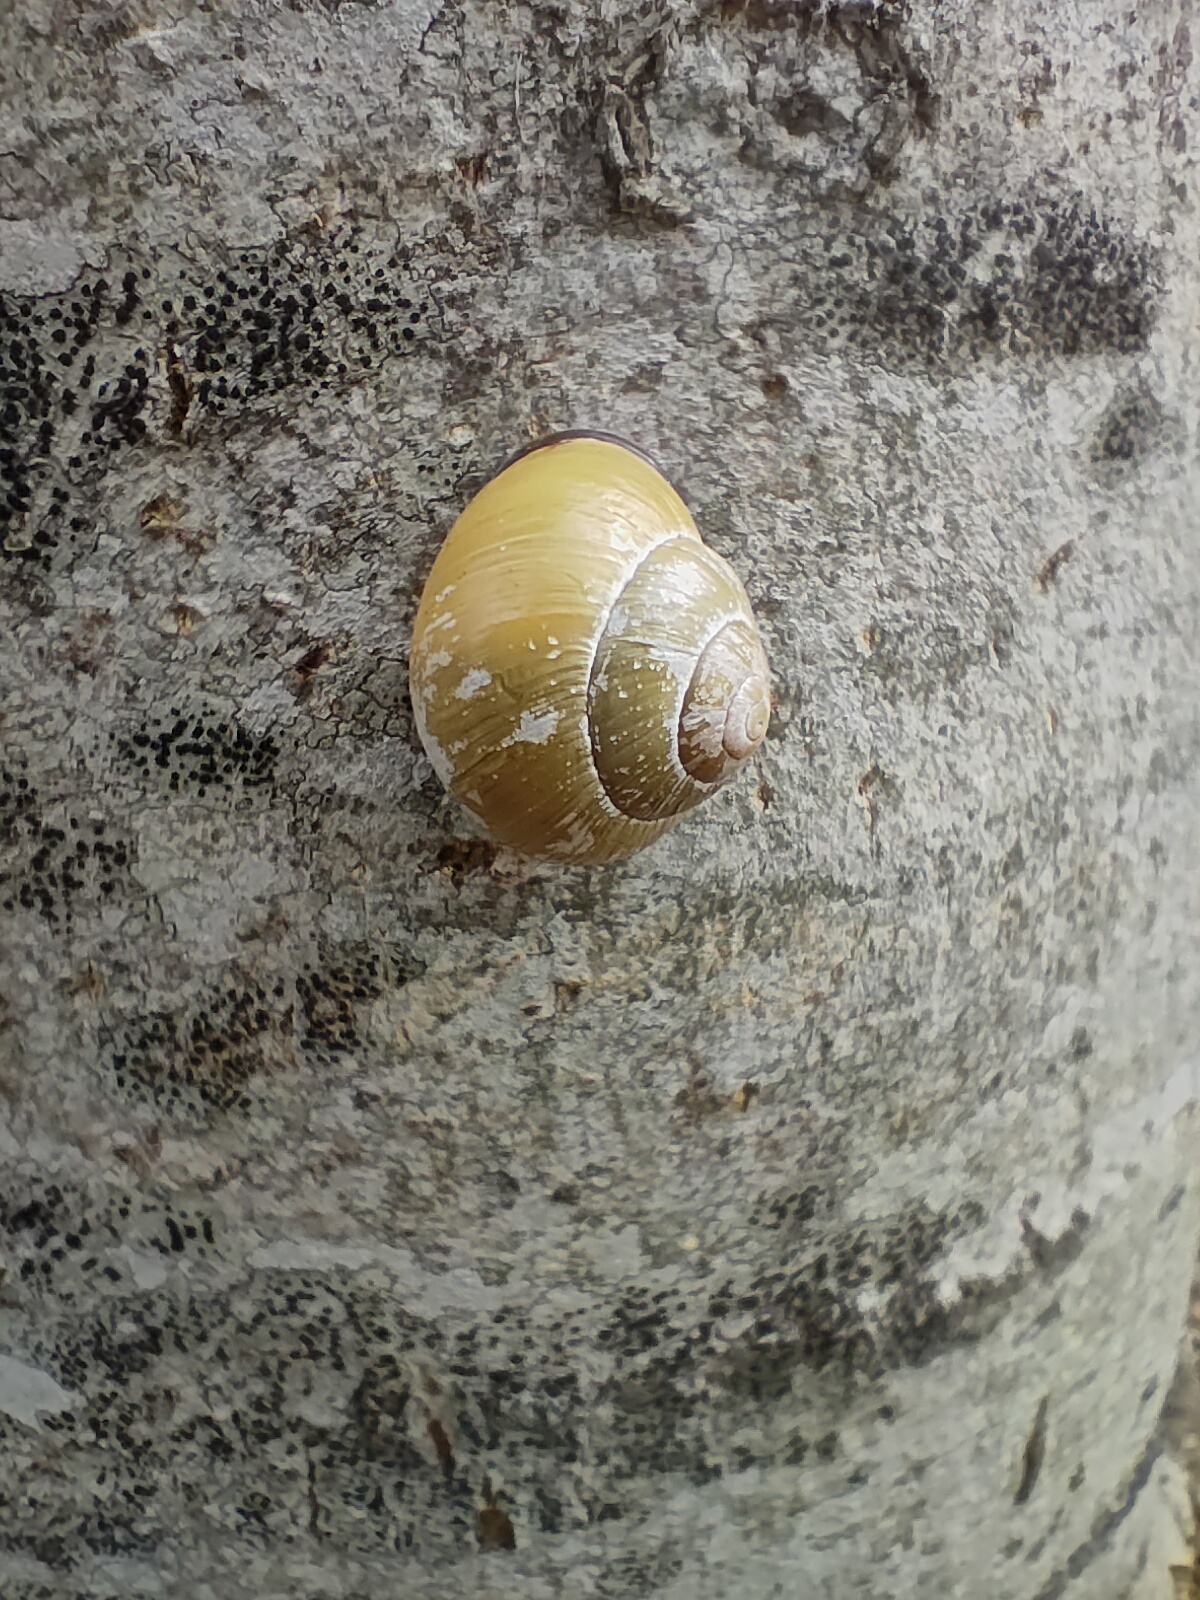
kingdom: Animalia
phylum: Mollusca
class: Gastropoda
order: Stylommatophora
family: Helicidae
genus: Cepaea
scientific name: Cepaea nemoralis
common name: Grovesnail
